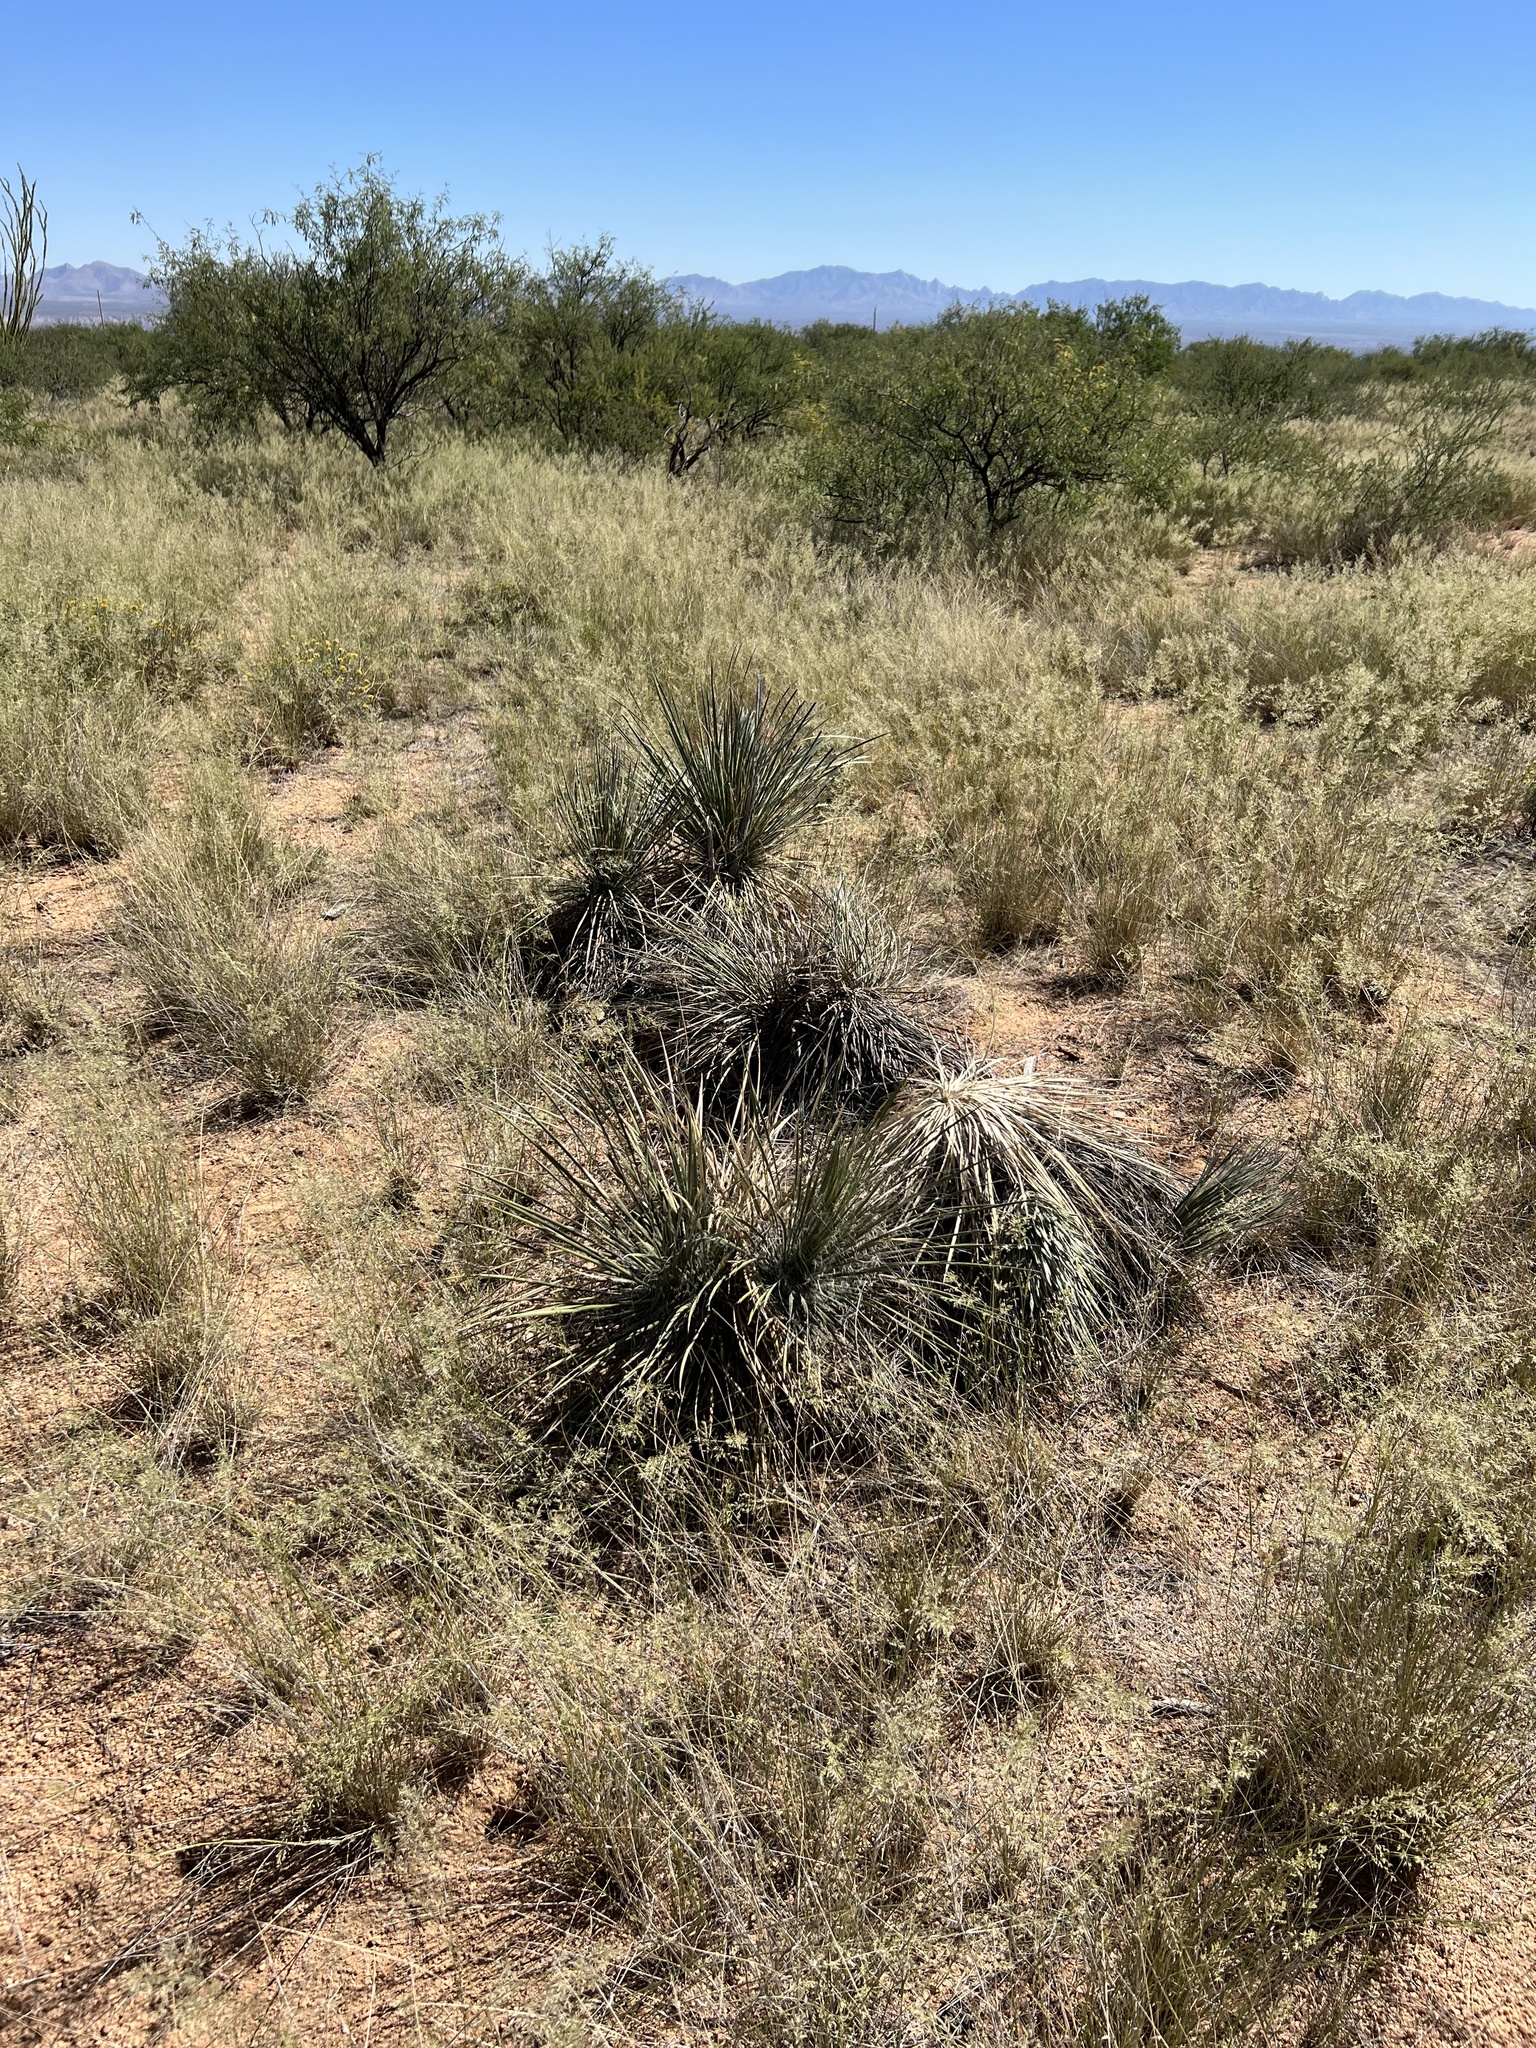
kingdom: Plantae
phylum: Tracheophyta
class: Liliopsida
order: Asparagales
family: Asparagaceae
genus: Yucca
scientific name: Yucca elata
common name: Palmella
